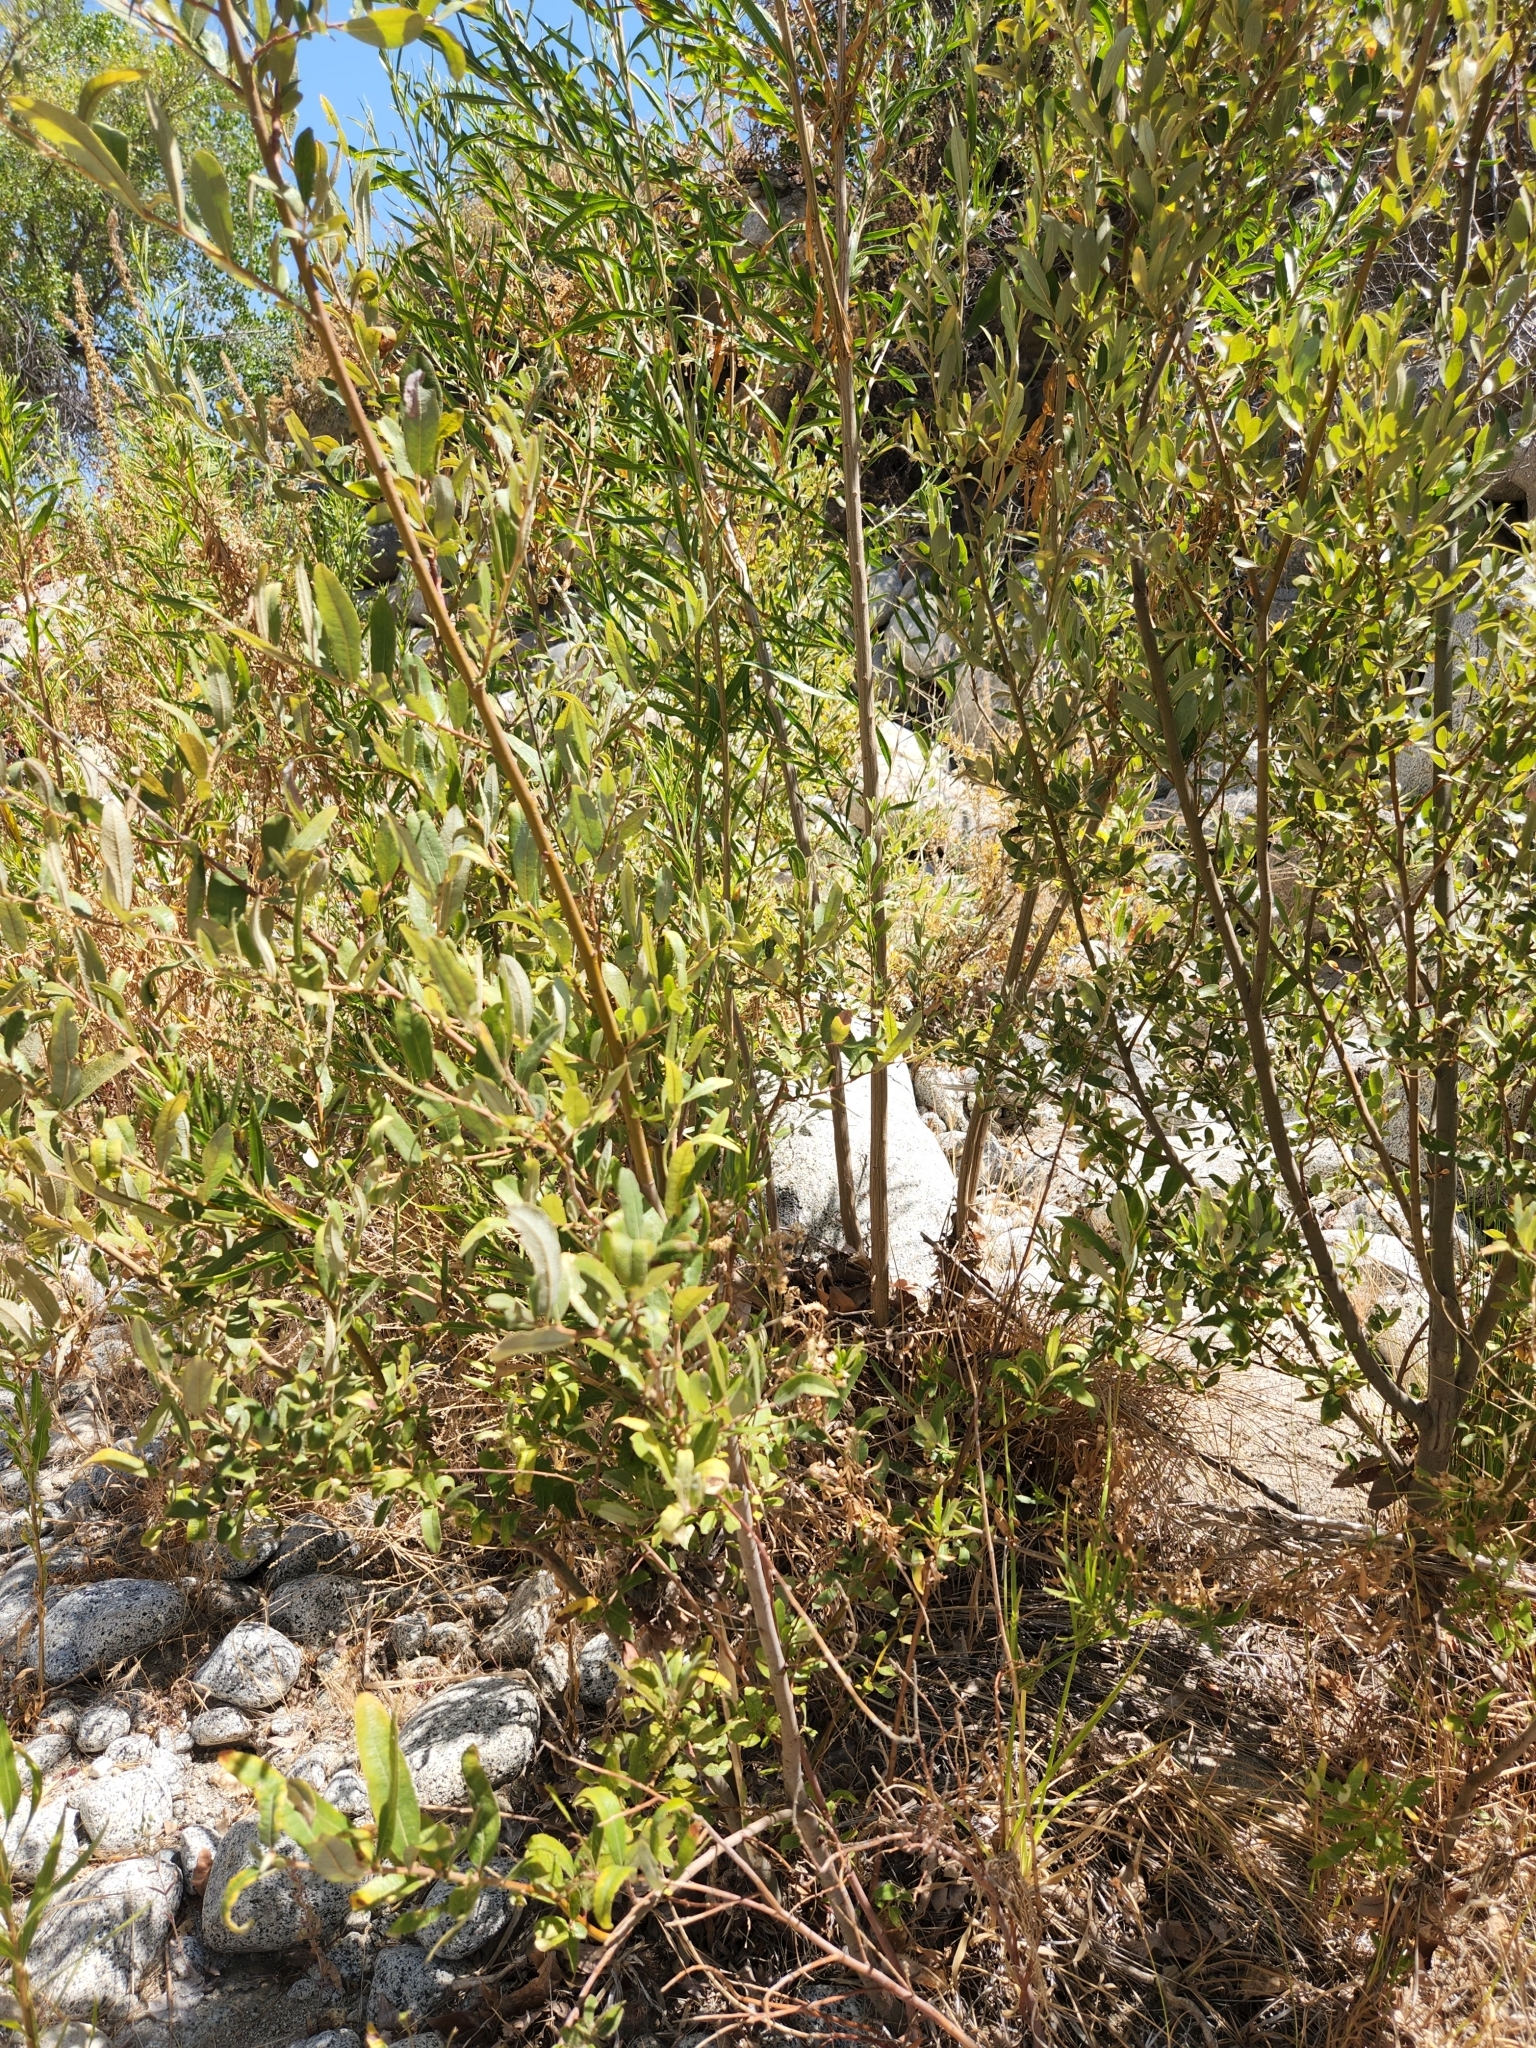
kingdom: Plantae
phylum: Tracheophyta
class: Magnoliopsida
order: Malpighiales
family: Salicaceae
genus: Salix
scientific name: Salix lasiolepis
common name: Arroyo willow
